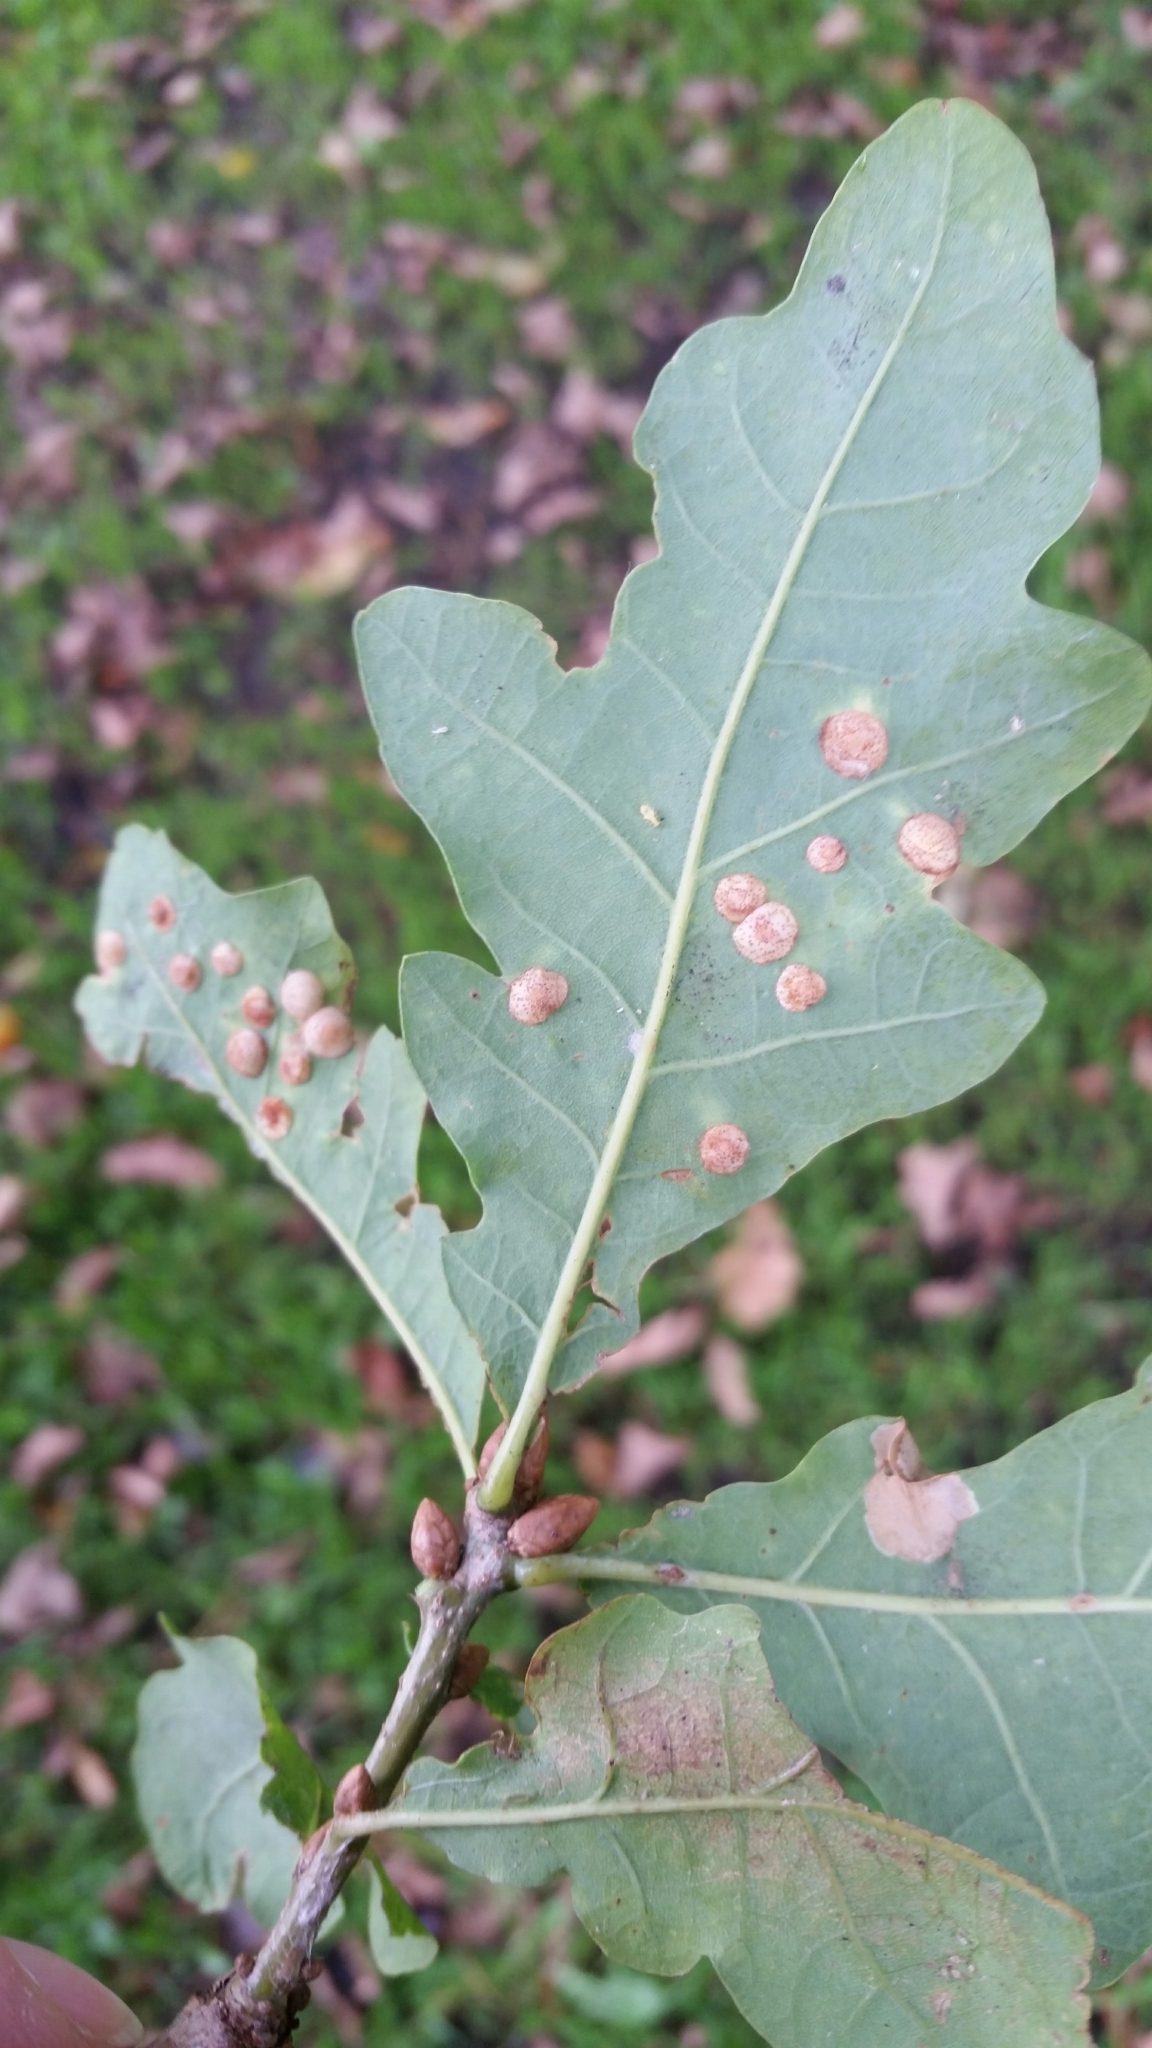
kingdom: Animalia
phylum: Arthropoda
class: Insecta
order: Hymenoptera
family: Cynipidae
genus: Neuroterus
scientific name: Neuroterus quercusbaccarum
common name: Common spangle gall
